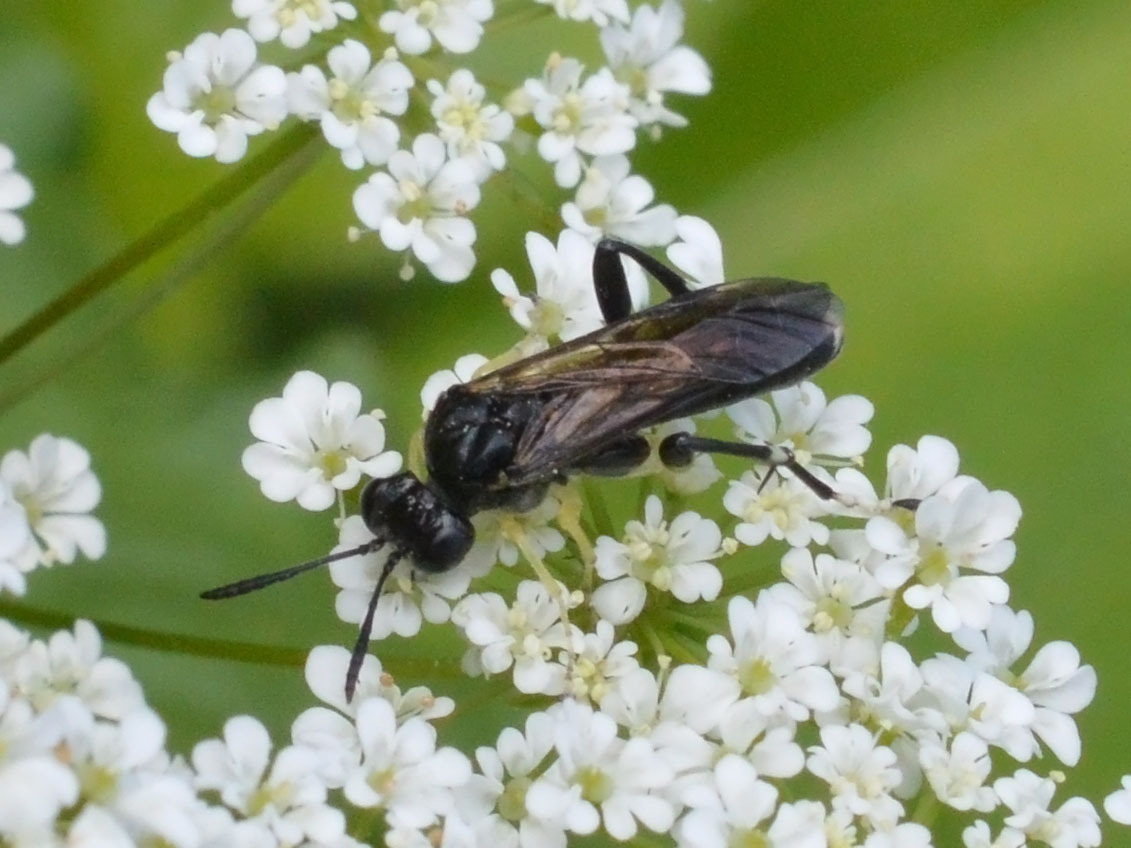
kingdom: Animalia
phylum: Arthropoda
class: Insecta
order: Hymenoptera
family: Tenthredinidae
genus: Macrophya
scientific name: Macrophya montana
